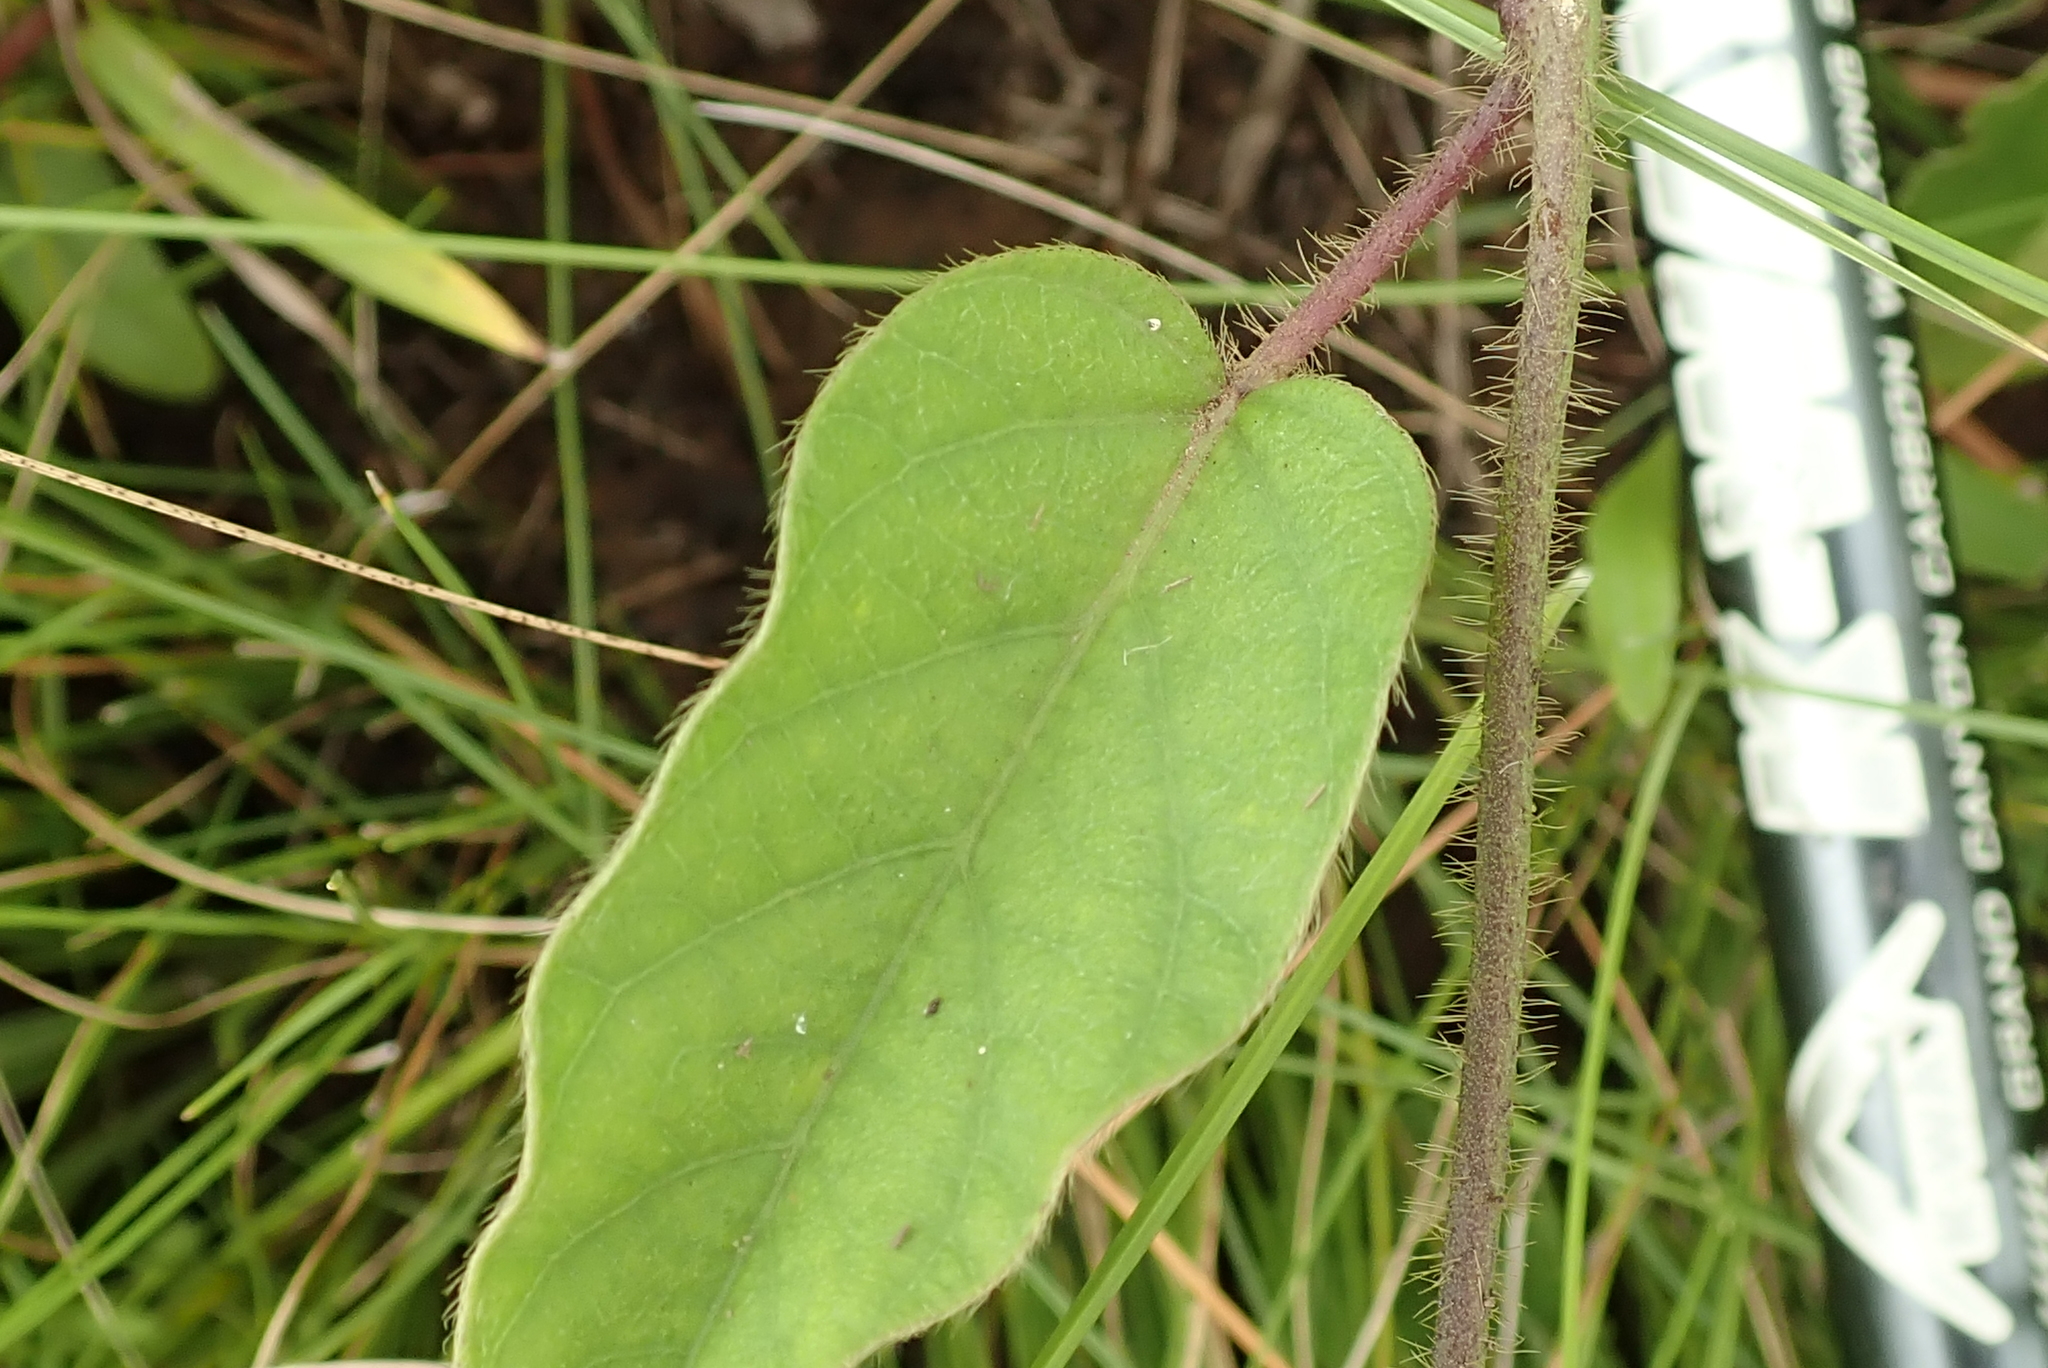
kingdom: Plantae
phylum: Tracheophyta
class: Magnoliopsida
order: Solanales
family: Convolvulaceae
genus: Ipomoea
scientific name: Ipomoea pellita
